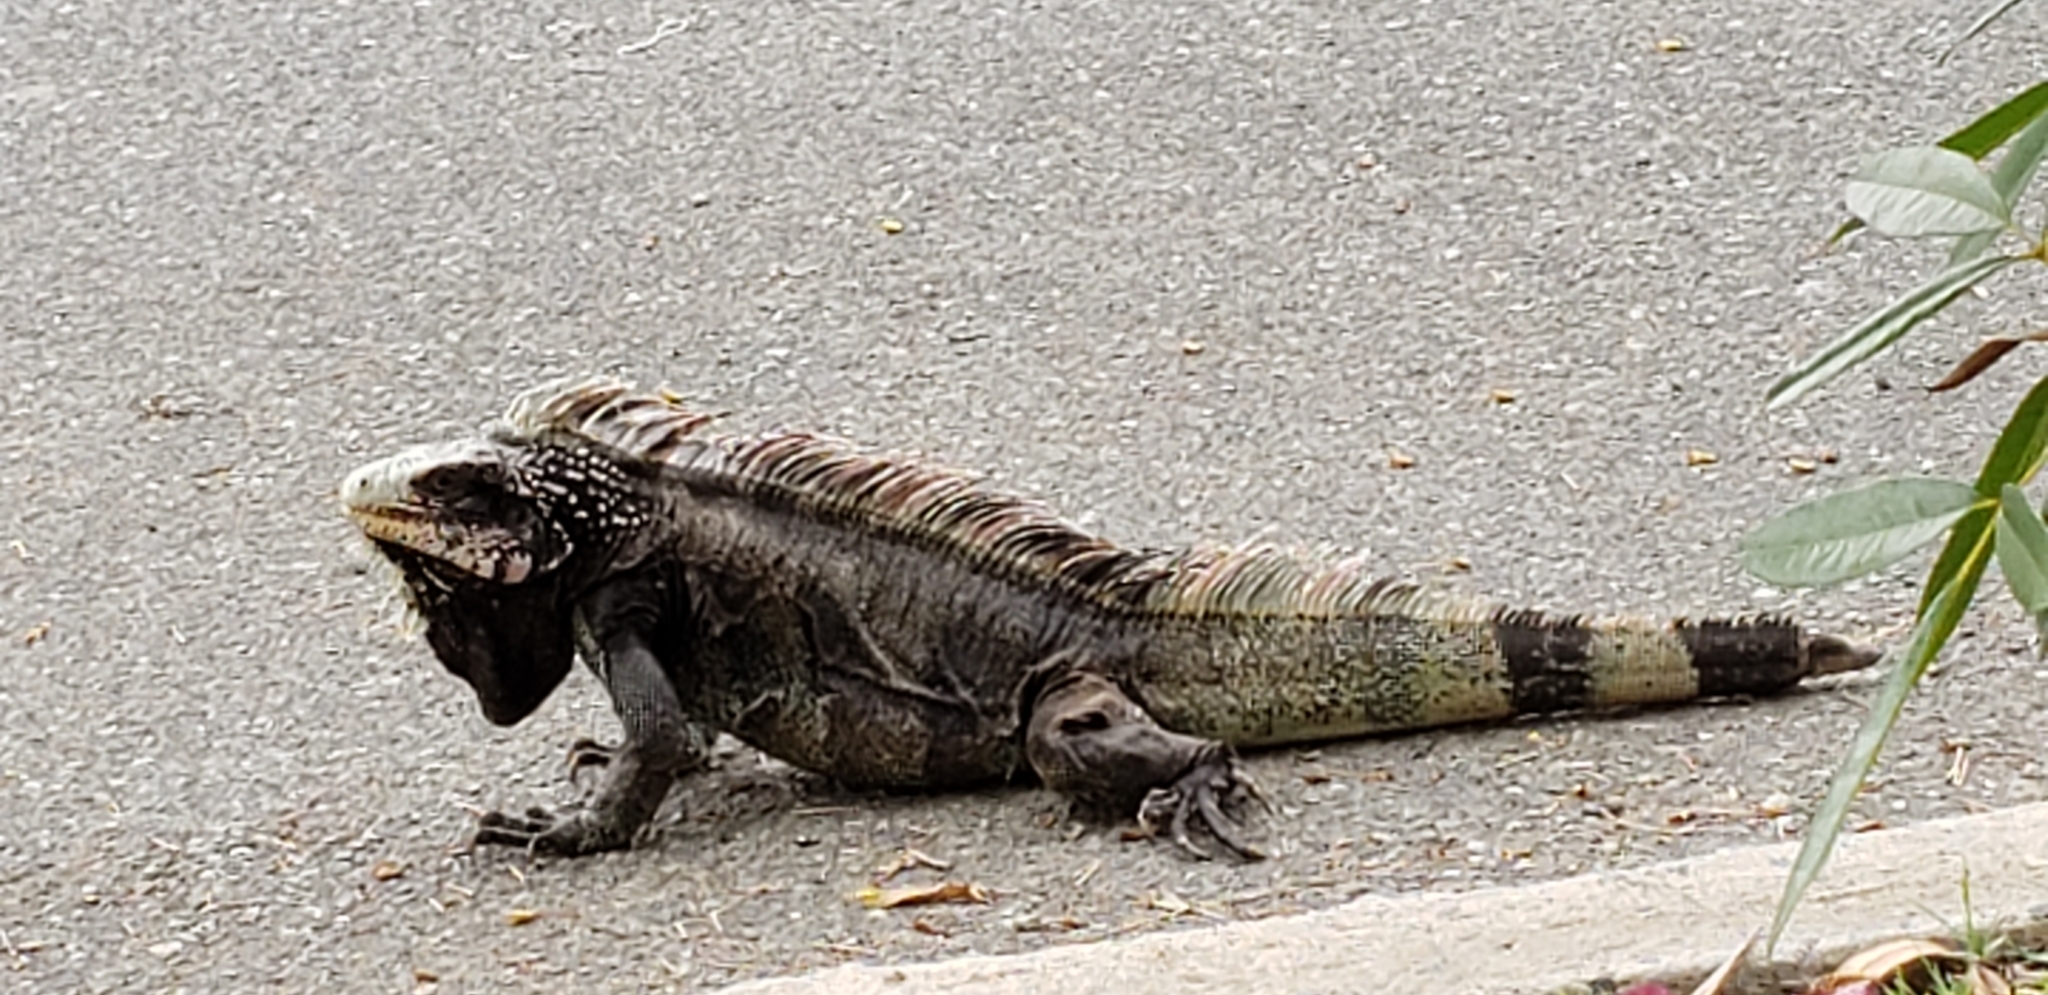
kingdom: Animalia
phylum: Chordata
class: Squamata
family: Iguanidae
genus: Iguana
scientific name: Iguana iguana
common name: Green iguana
